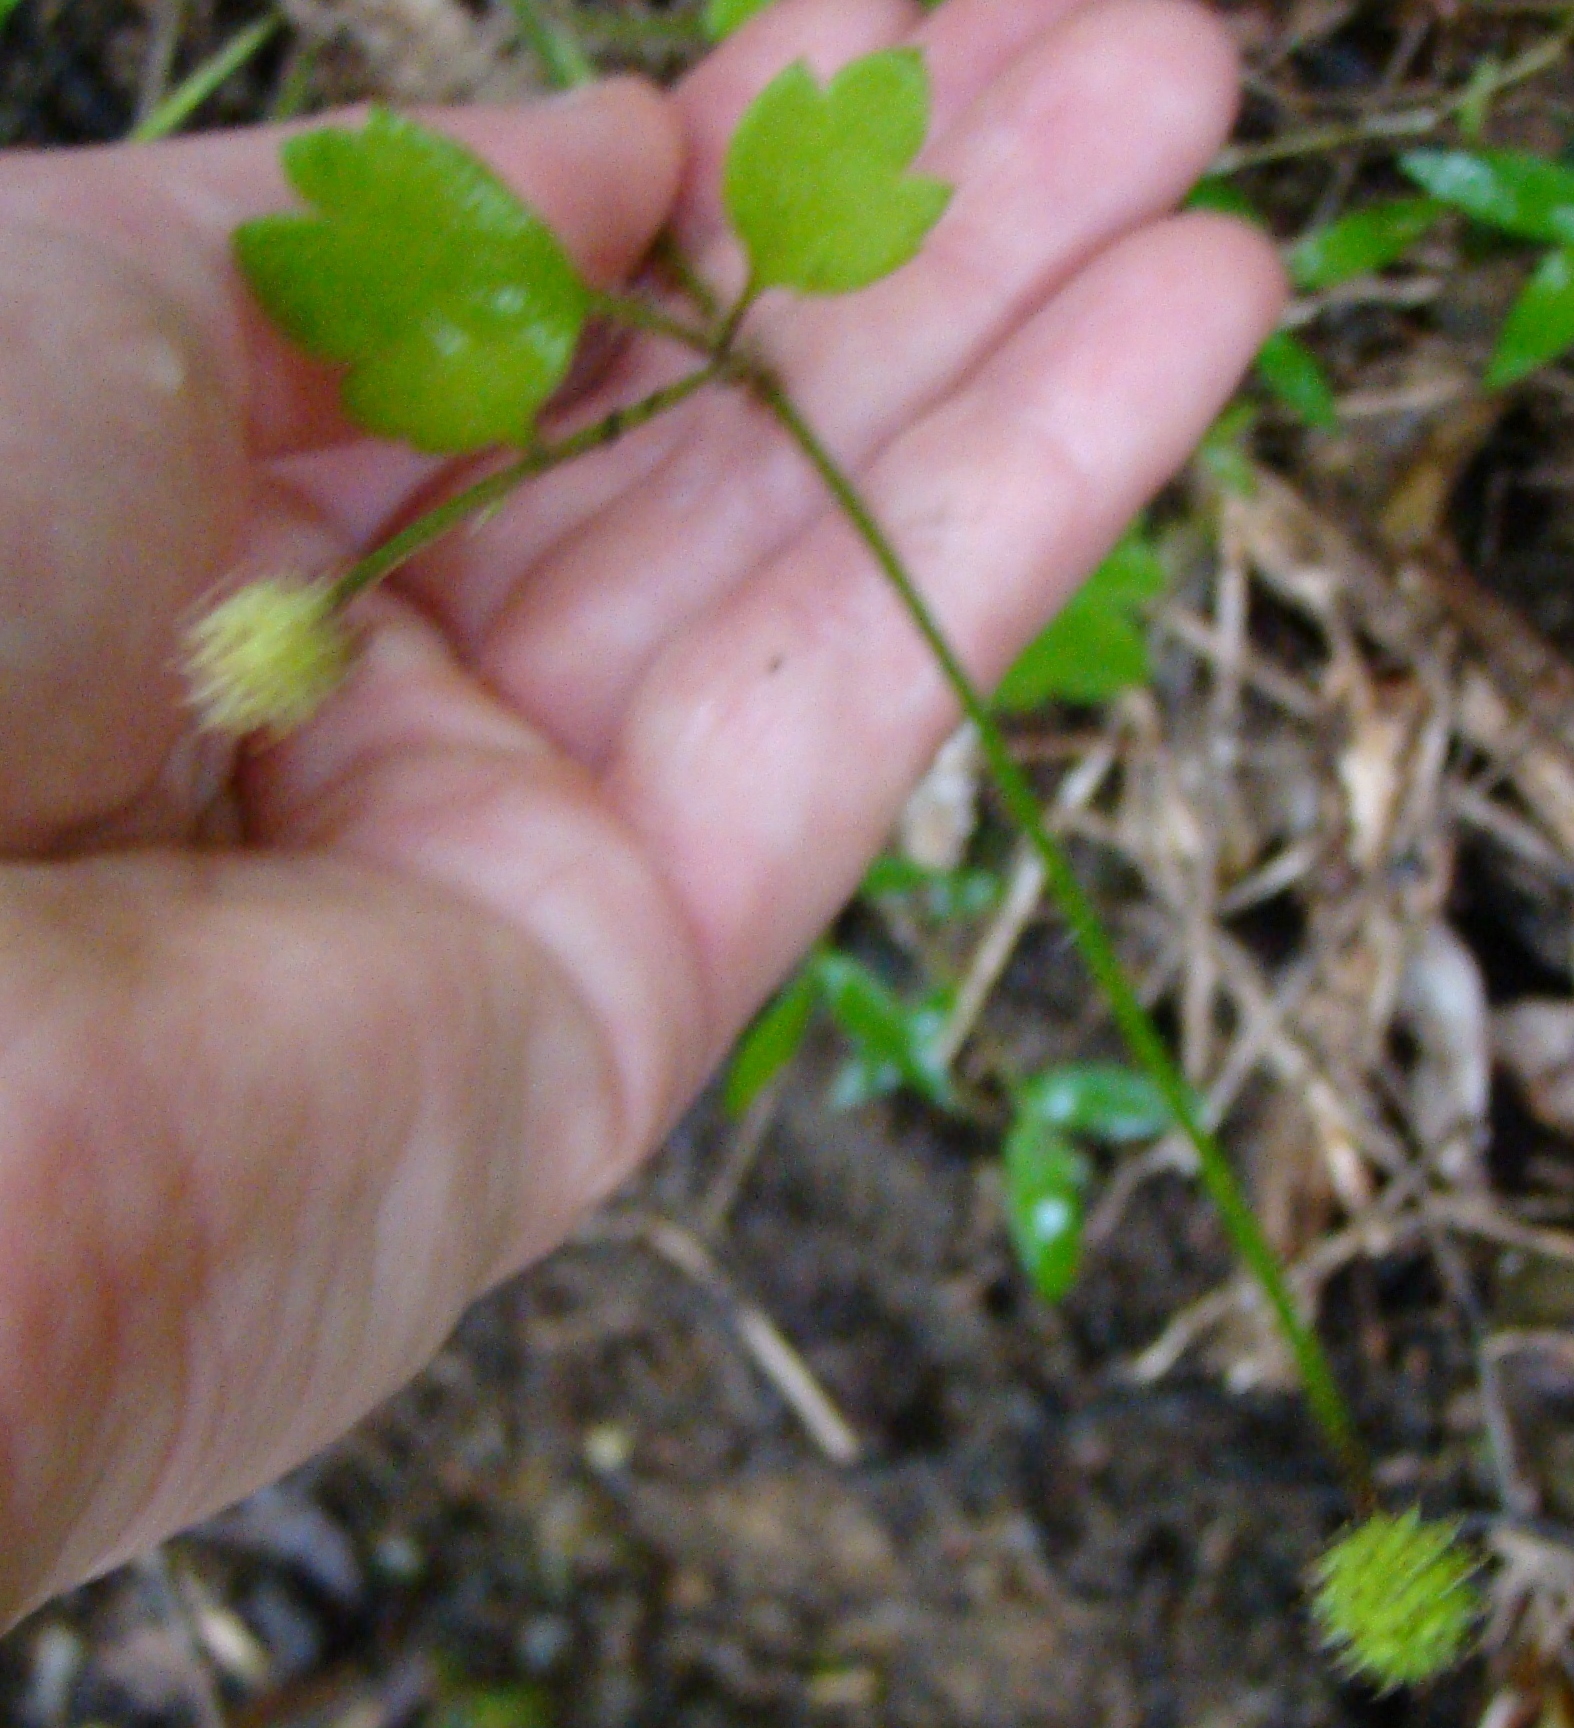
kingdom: Plantae
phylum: Tracheophyta
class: Magnoliopsida
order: Ranunculales
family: Ranunculaceae
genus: Ranunculus
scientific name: Ranunculus reflexus
